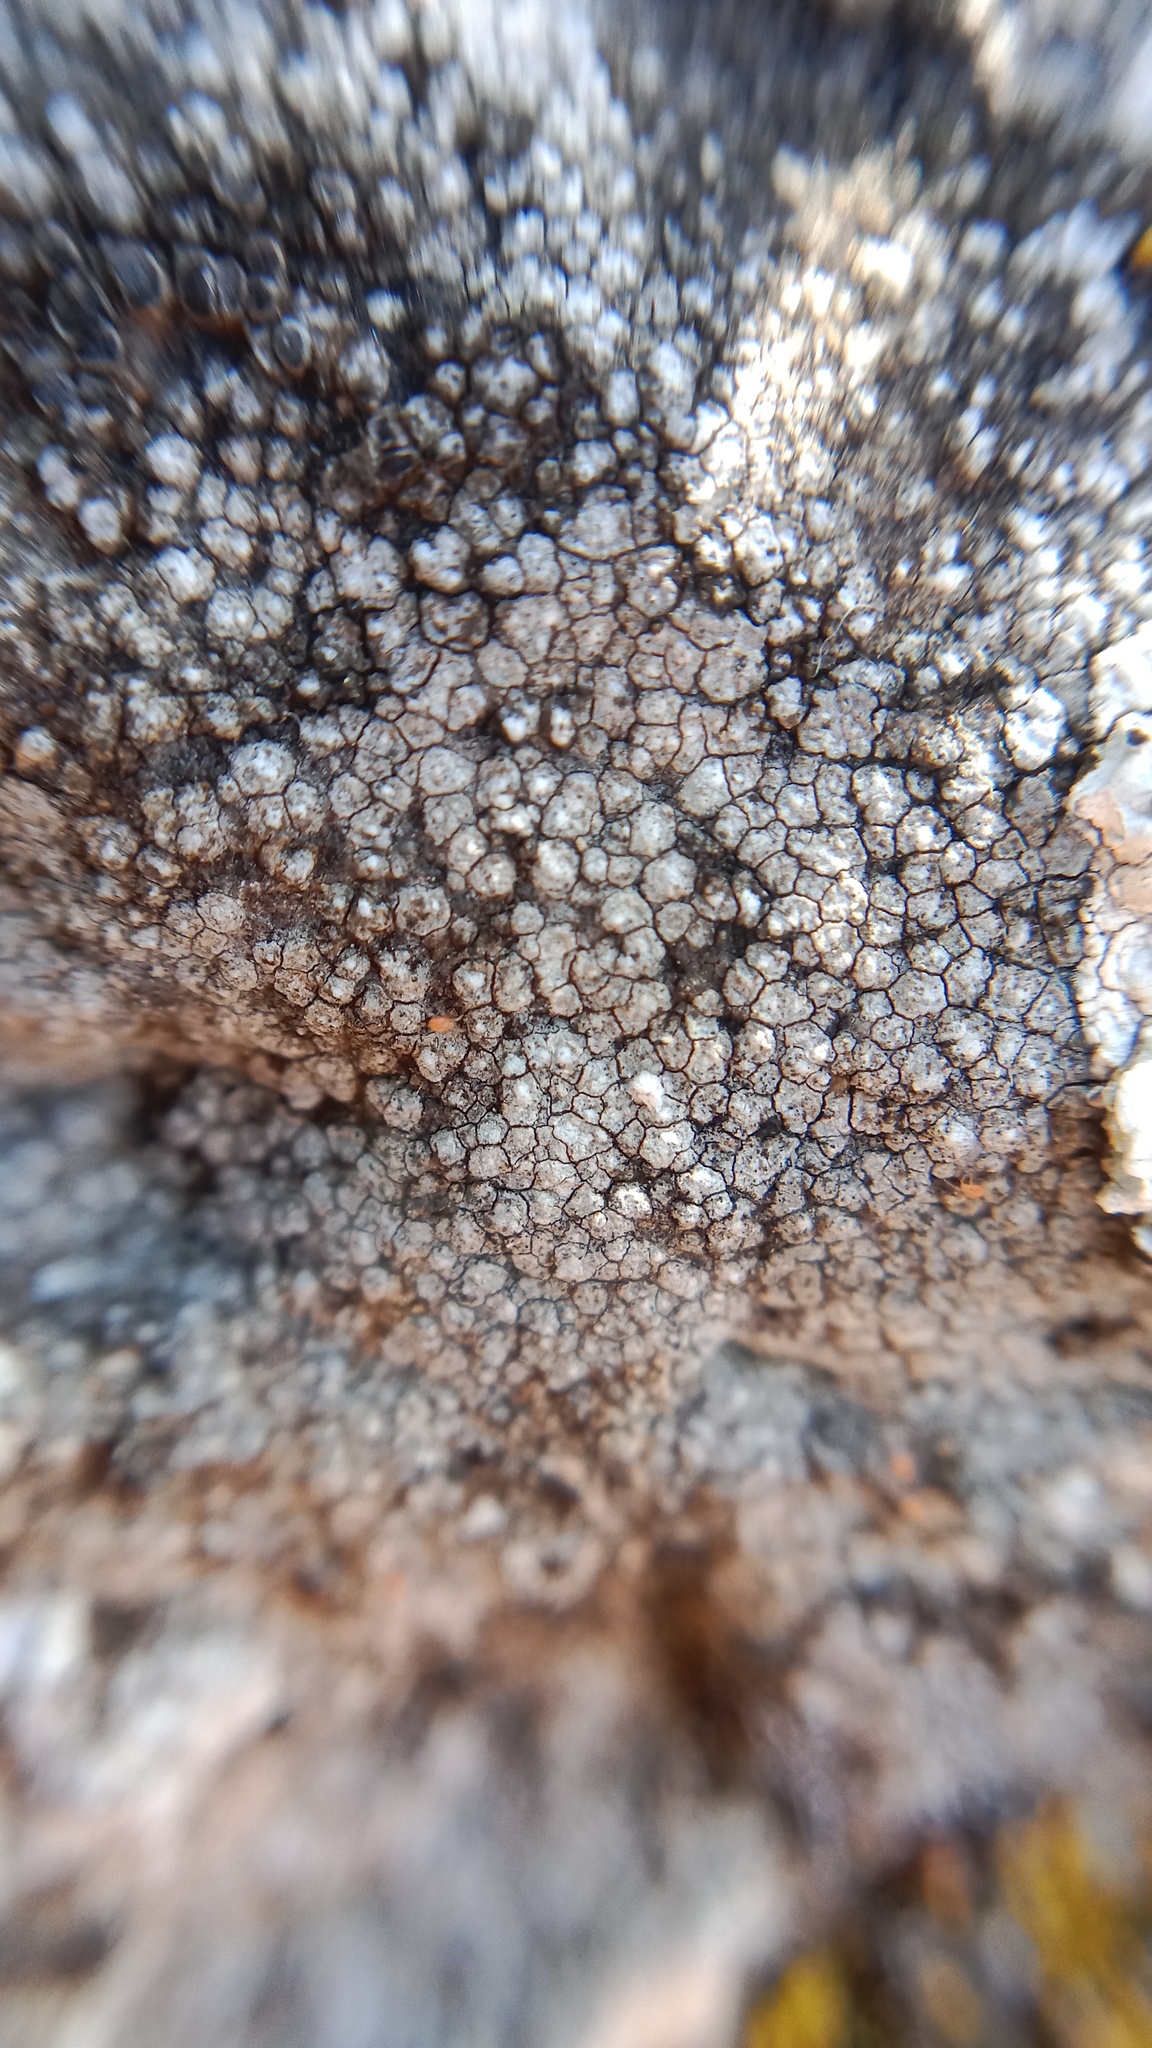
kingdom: Fungi
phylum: Ascomycota
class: Lecanoromycetes
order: Teloschistales
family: Teloschistaceae
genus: Pyrenodesmia
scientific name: Pyrenodesmia variabilis
